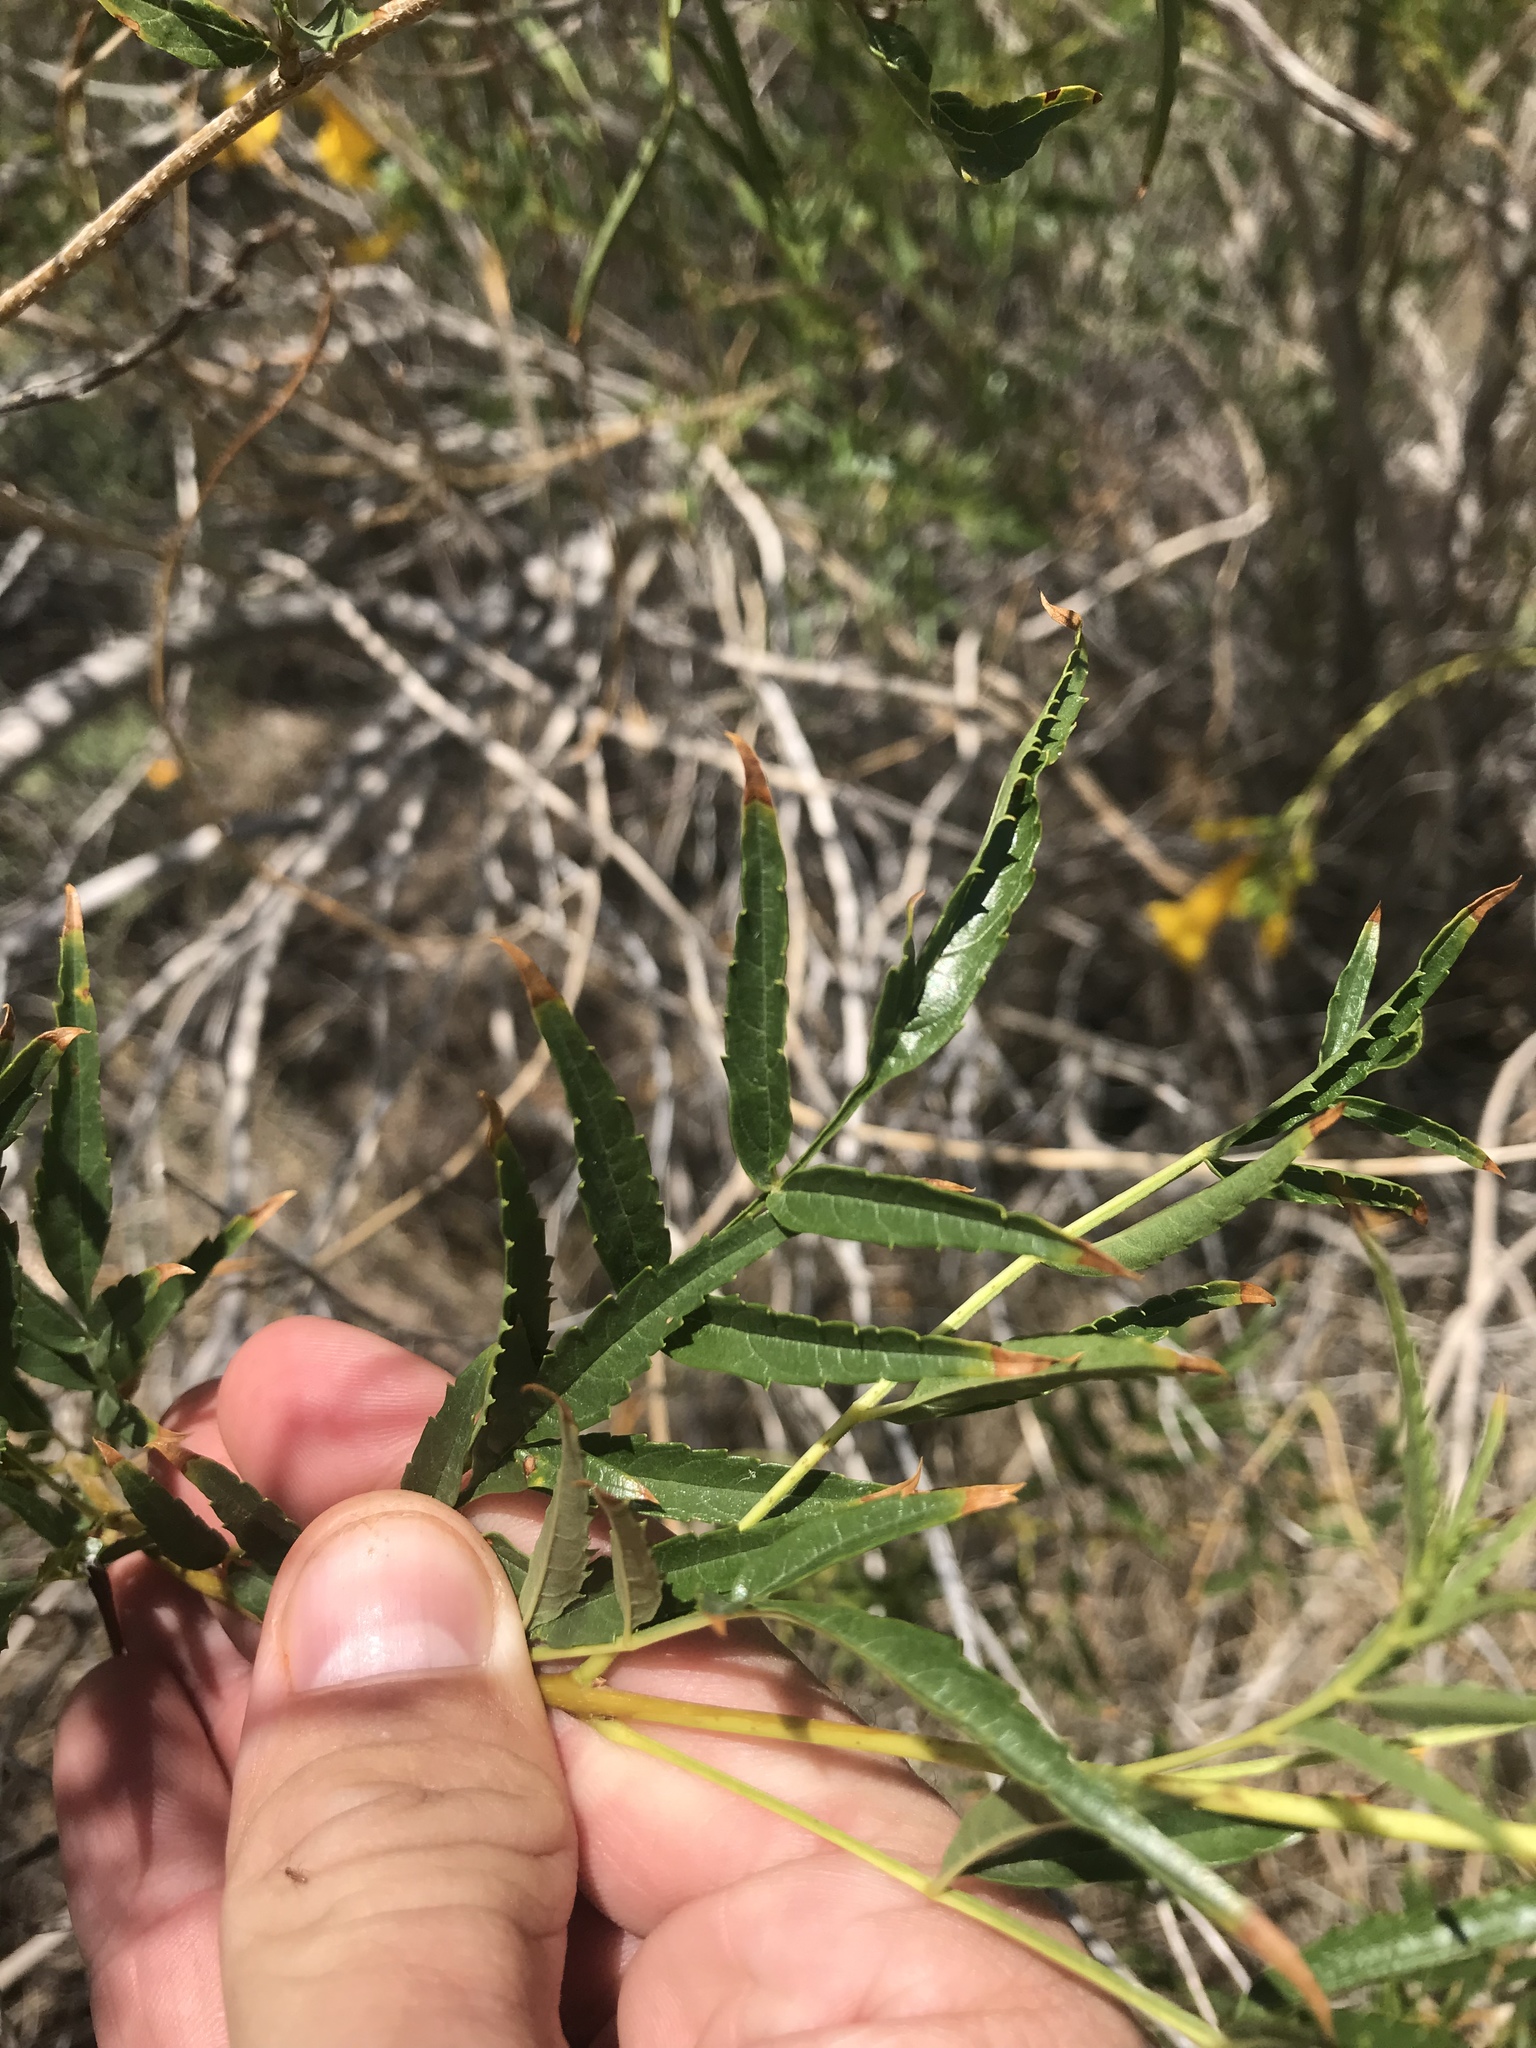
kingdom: Plantae
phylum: Tracheophyta
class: Magnoliopsida
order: Lamiales
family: Bignoniaceae
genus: Tecoma
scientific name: Tecoma stans
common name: Yellow trumpetbush
